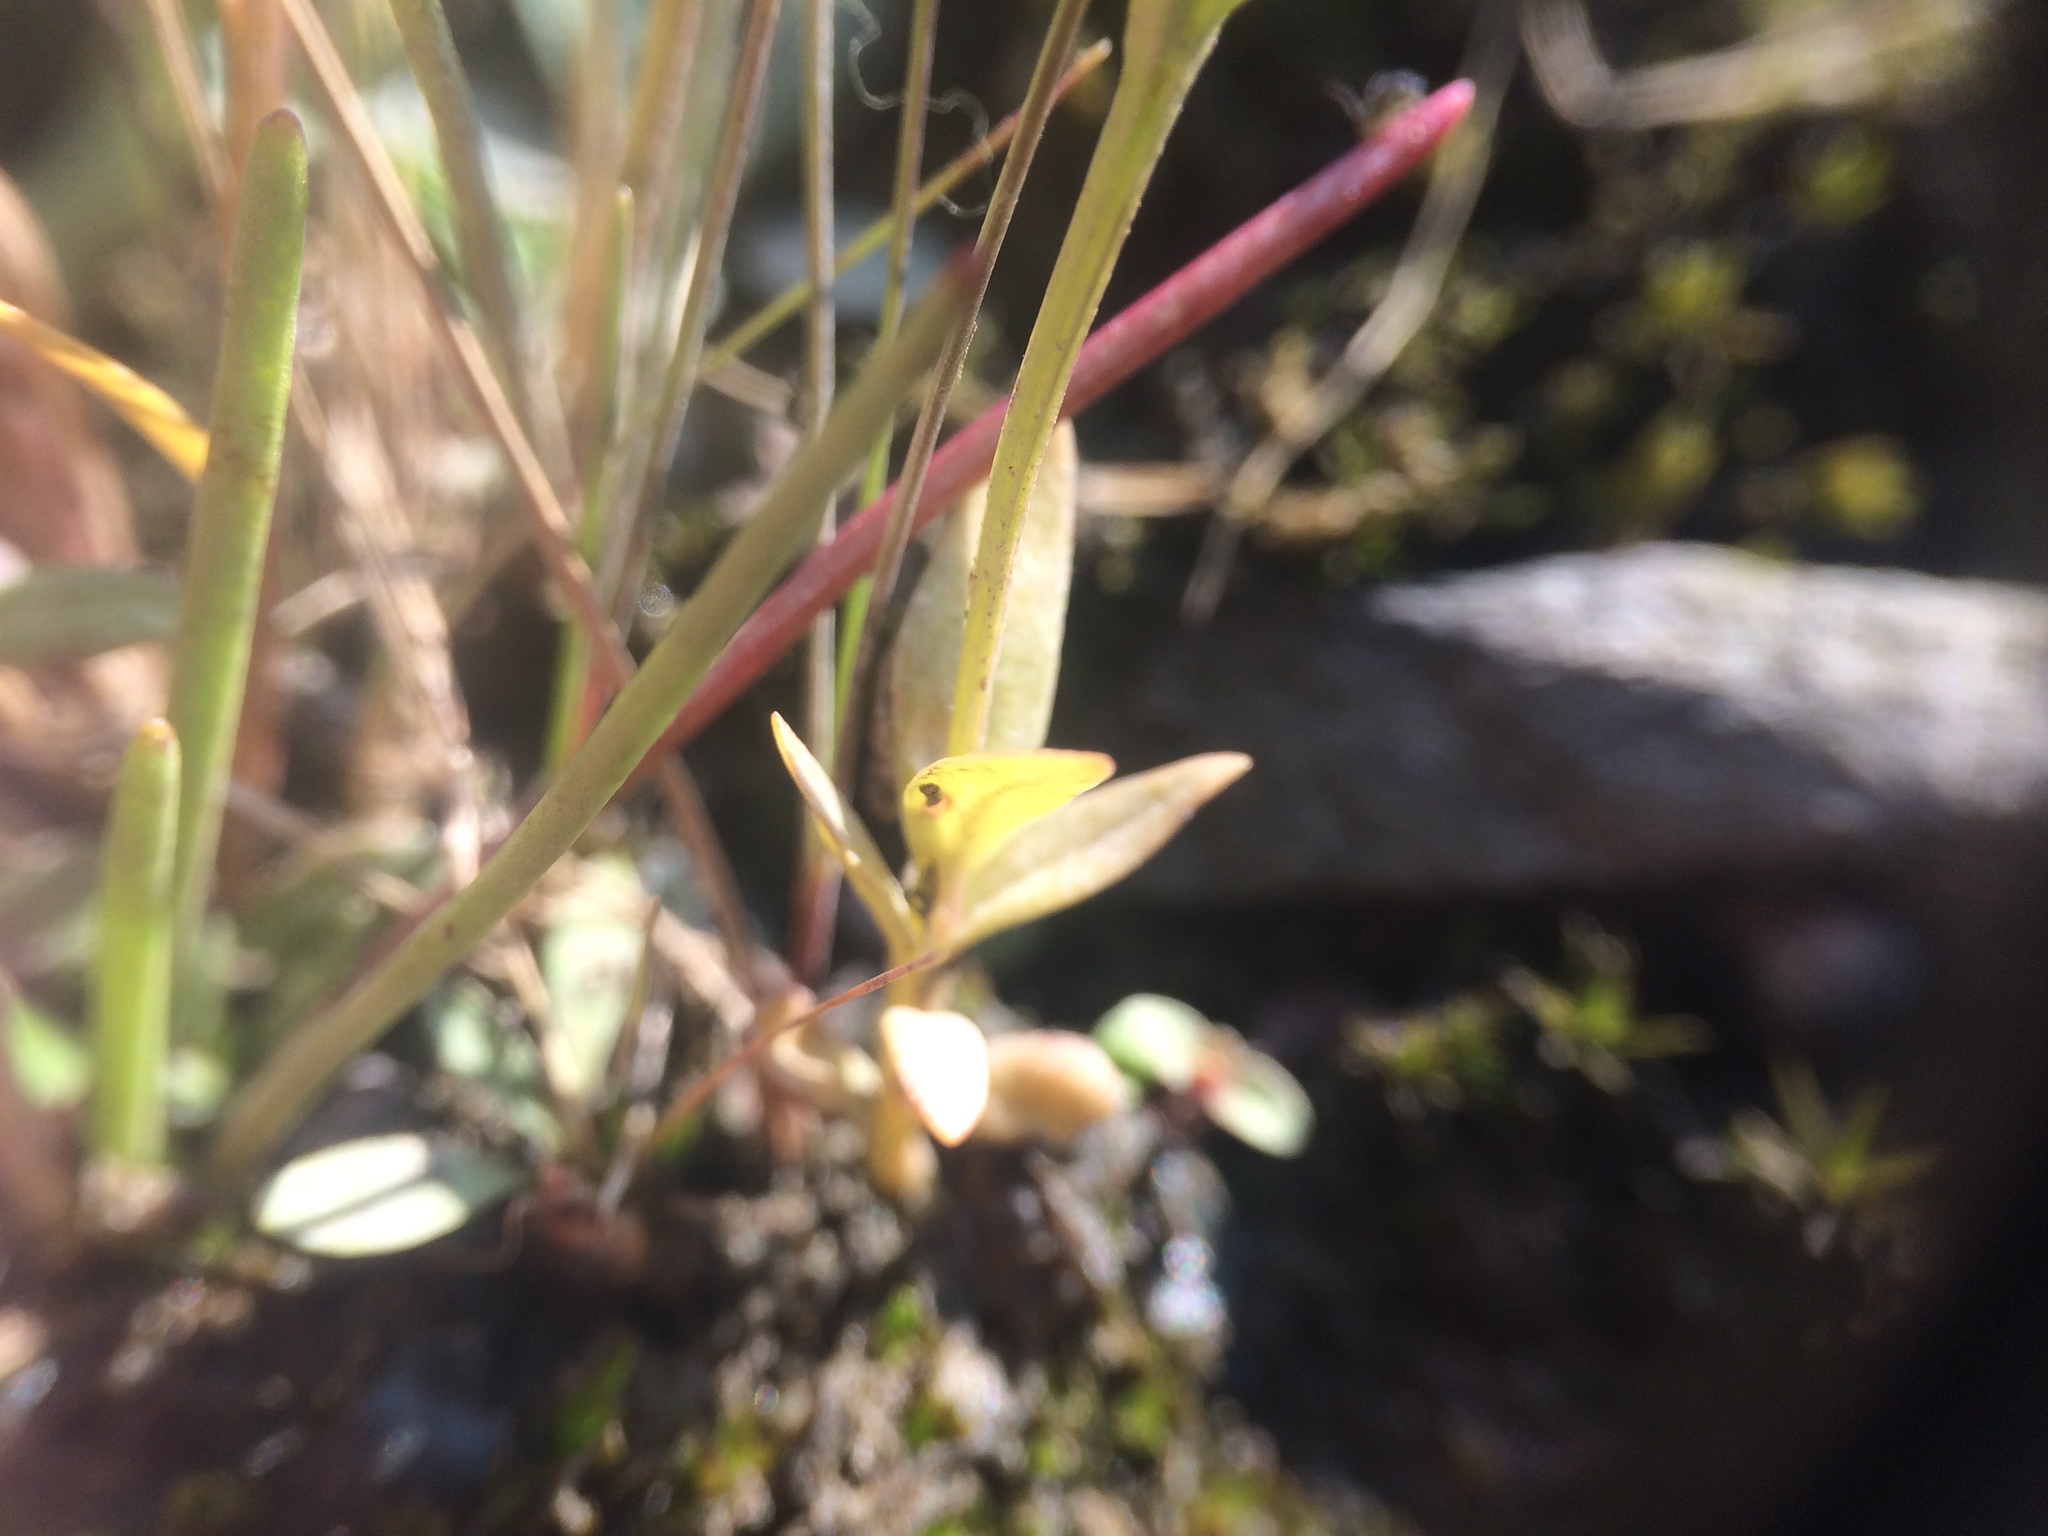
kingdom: Plantae
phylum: Tracheophyta
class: Magnoliopsida
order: Gentianales
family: Gentianaceae
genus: Gentianopsis
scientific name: Gentianopsis victorinii
